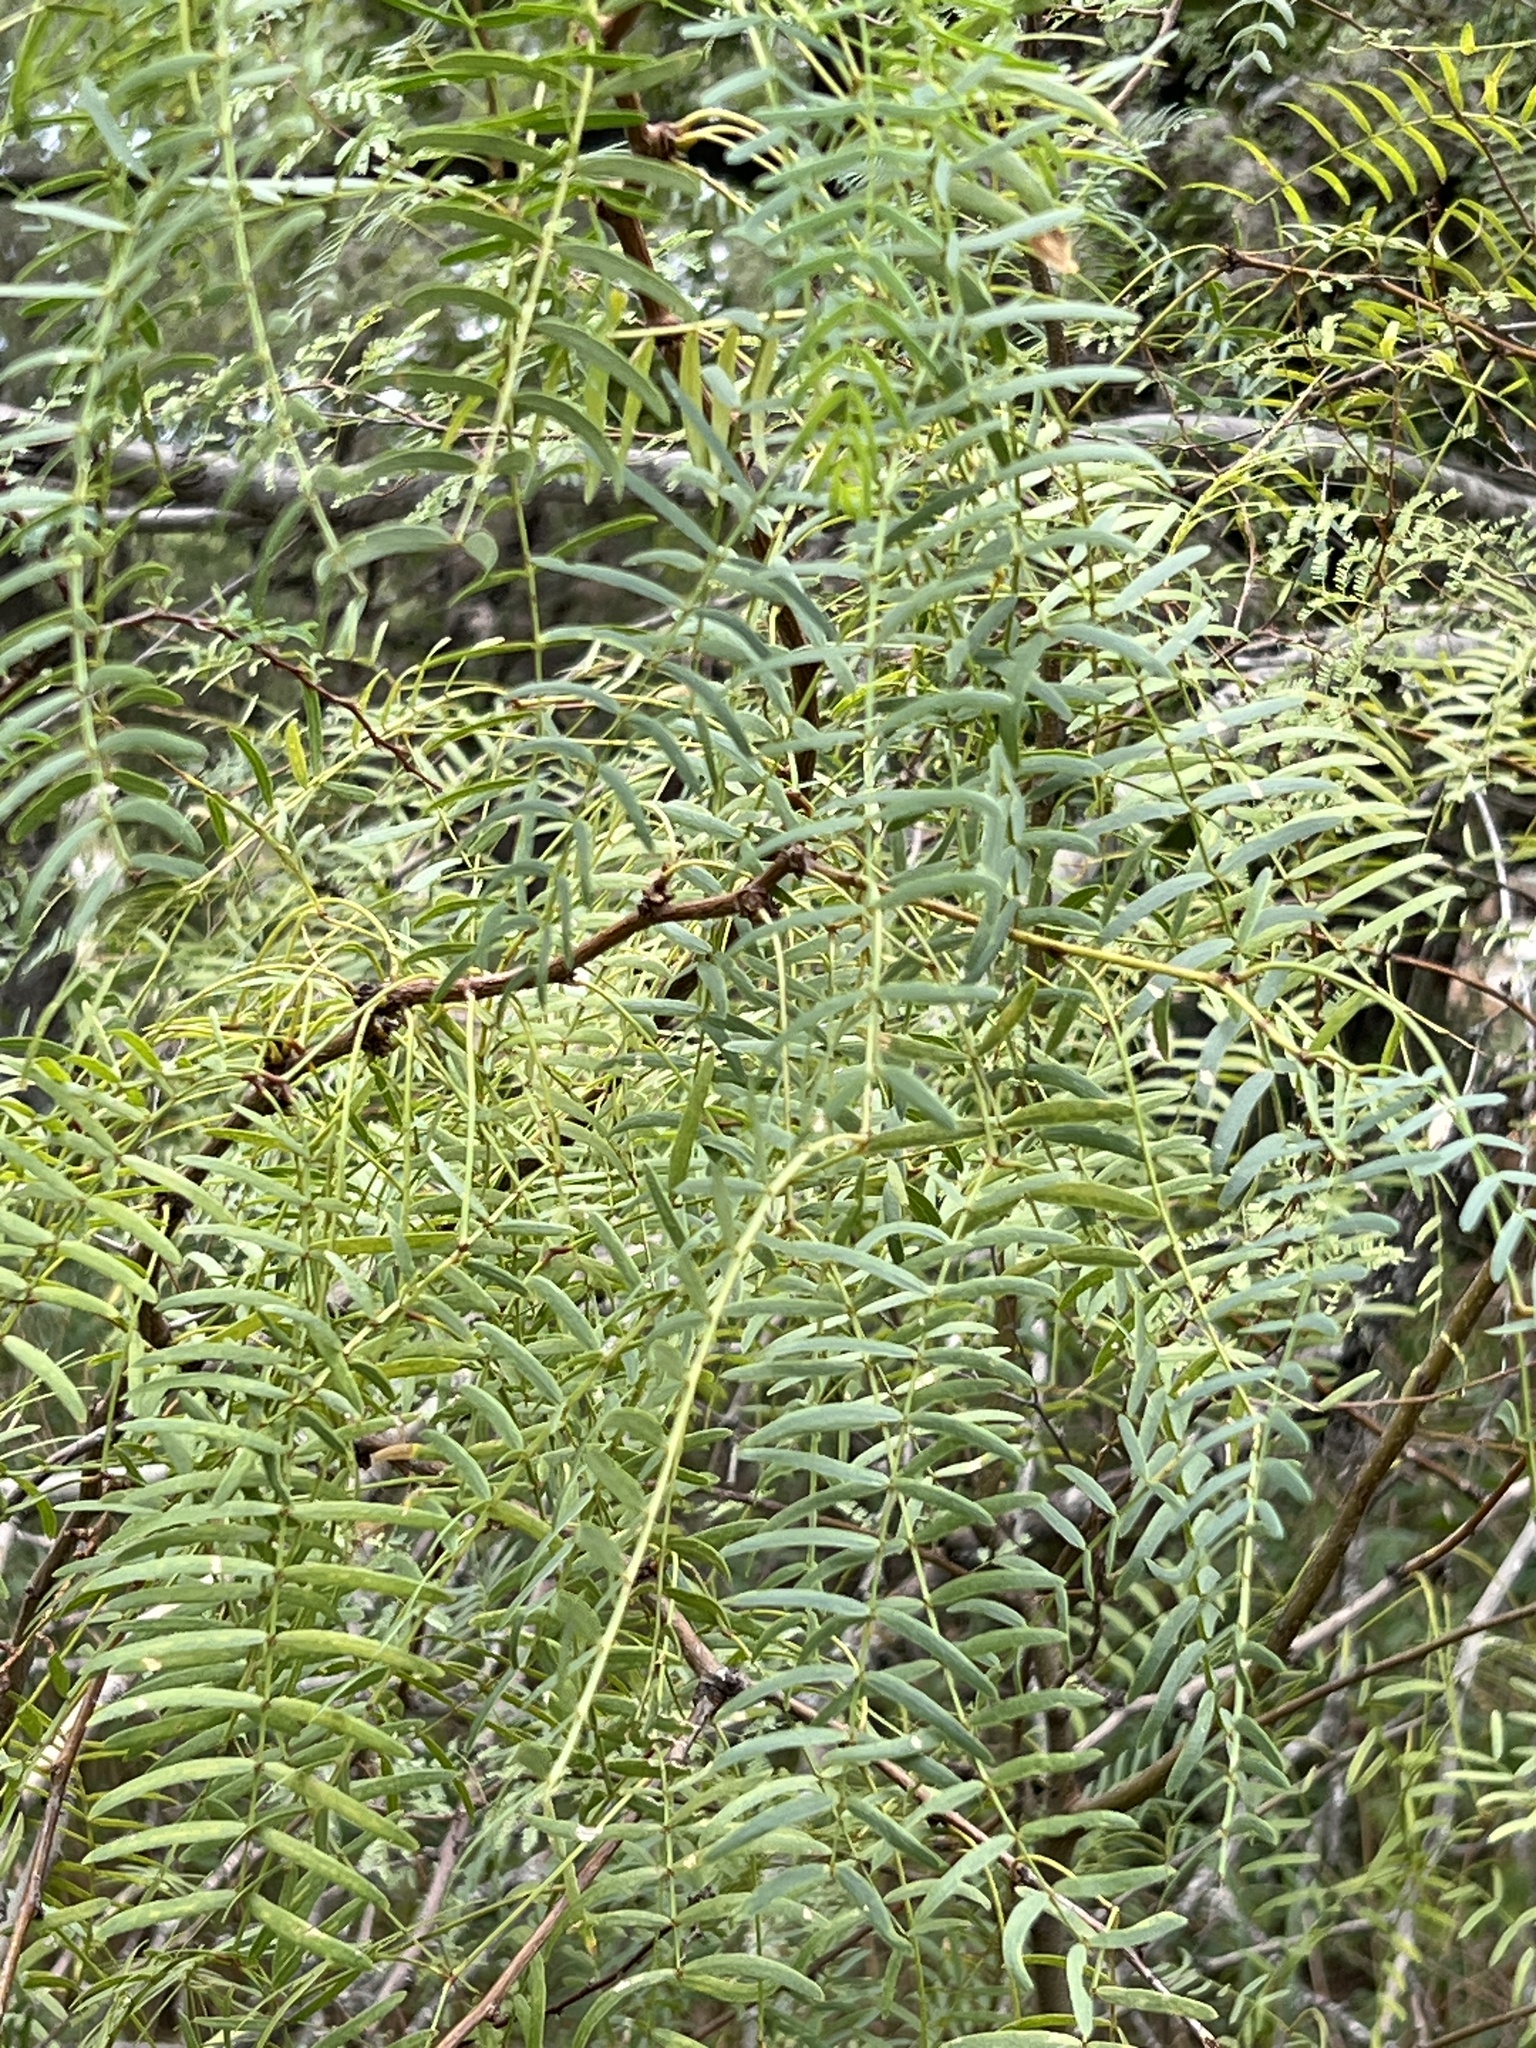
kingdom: Plantae
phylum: Tracheophyta
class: Magnoliopsida
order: Fabales
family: Fabaceae
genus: Prosopis
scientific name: Prosopis glandulosa
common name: Honey mesquite
